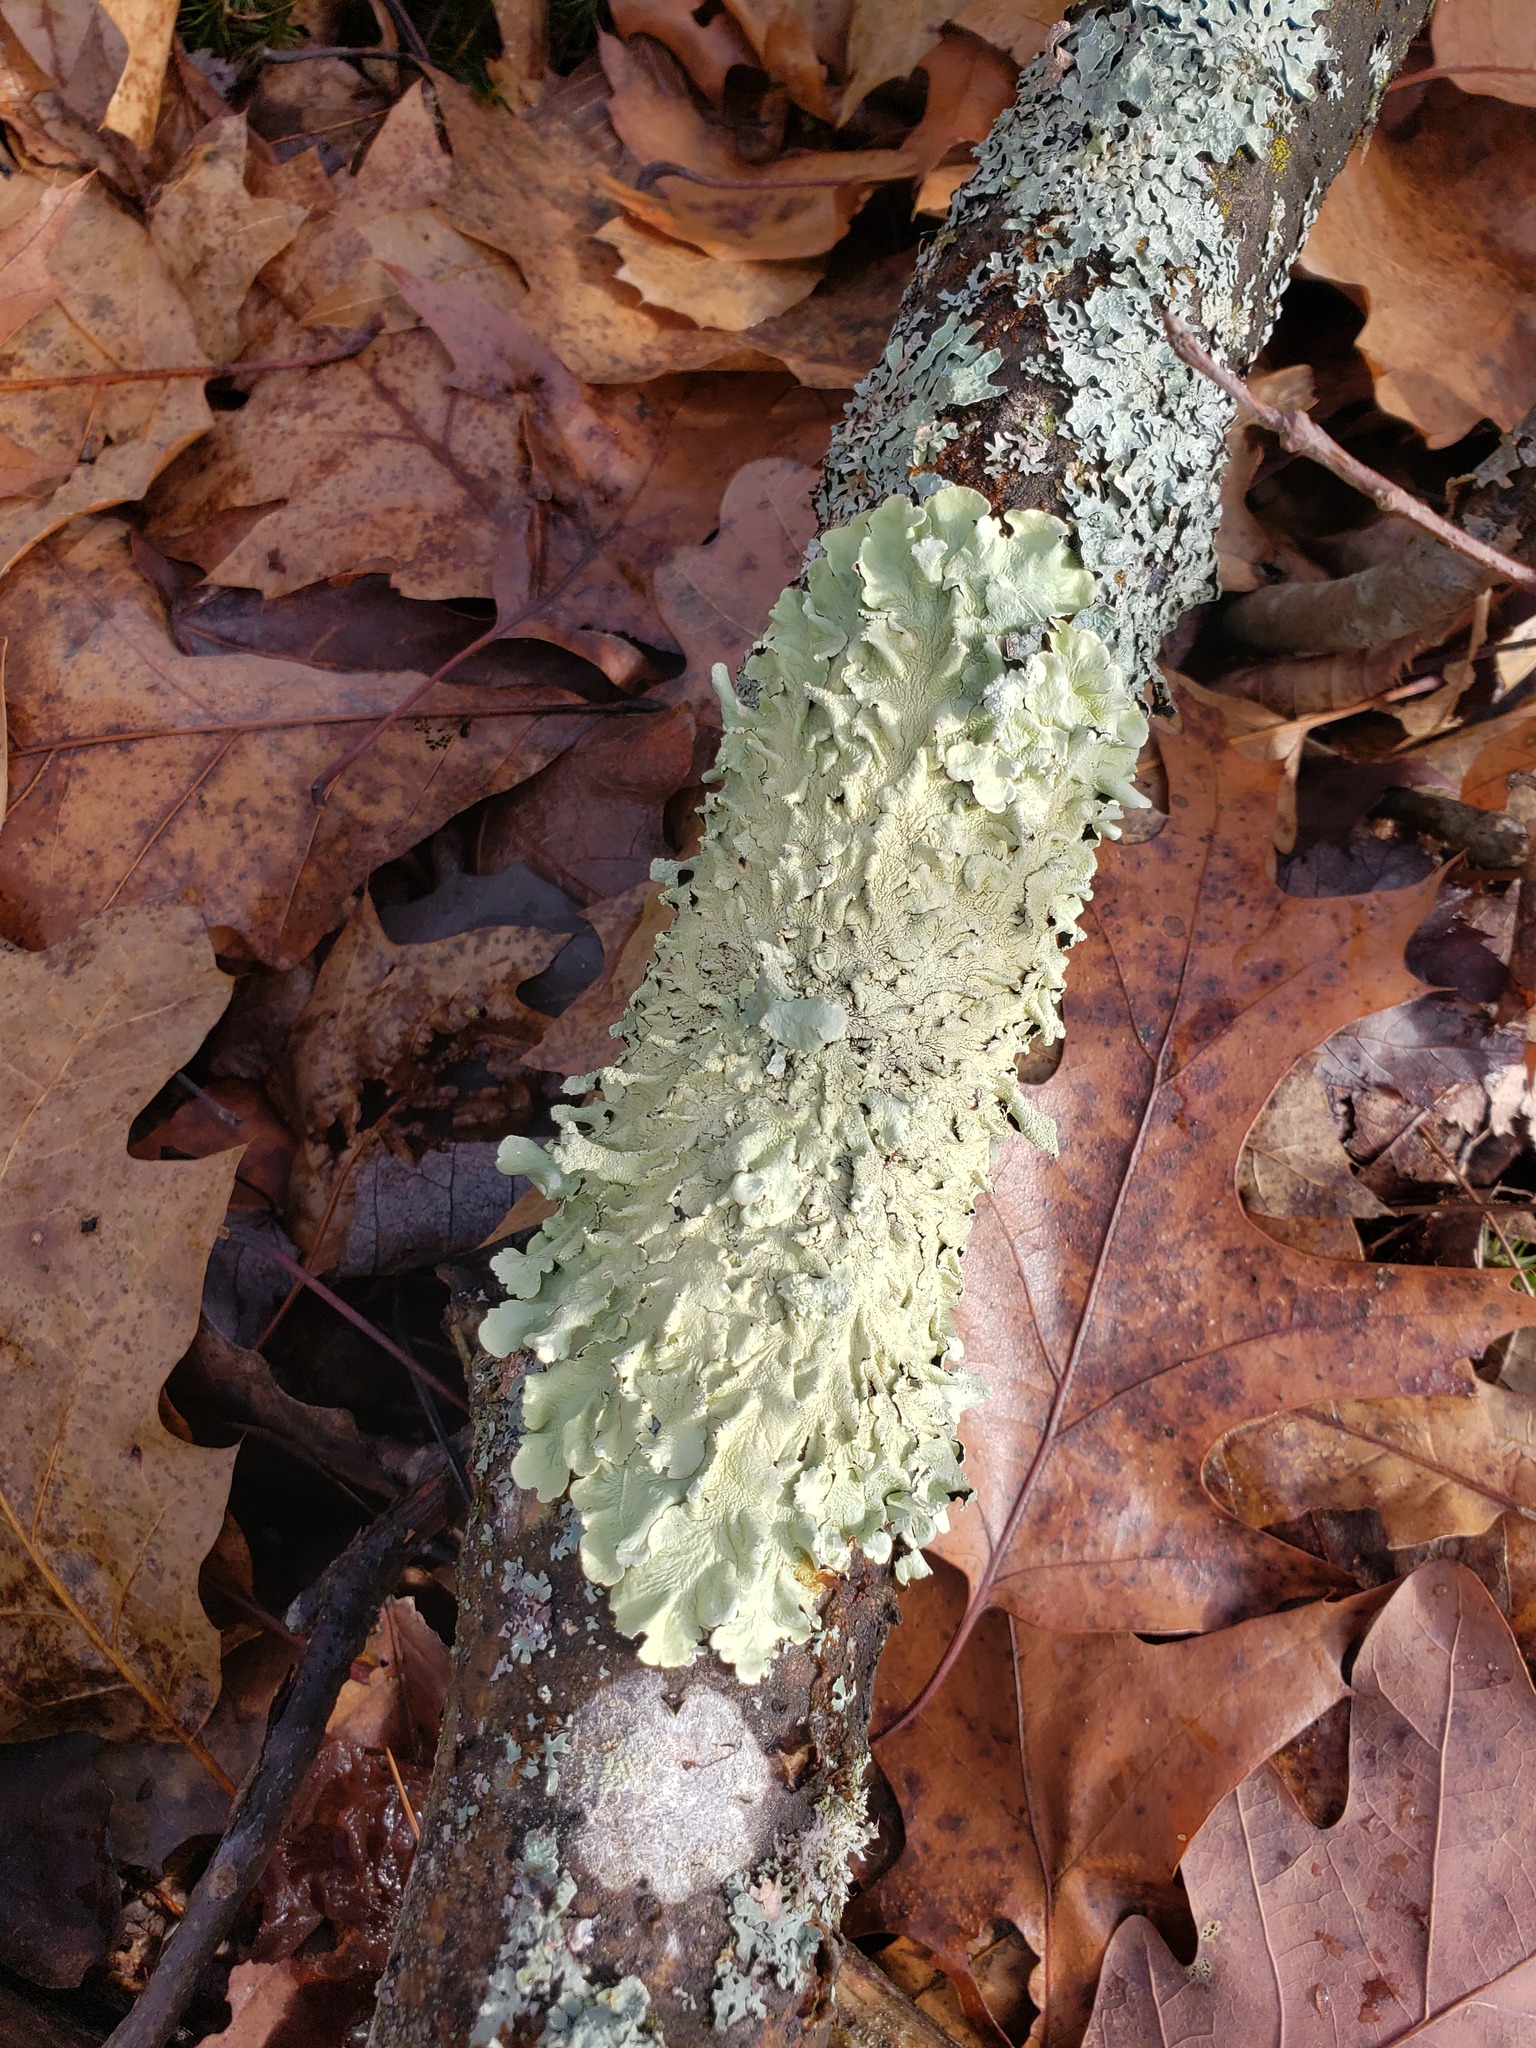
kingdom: Fungi
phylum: Ascomycota
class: Lecanoromycetes
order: Lecanorales
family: Parmeliaceae
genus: Flavoparmelia
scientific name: Flavoparmelia caperata
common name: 40-mile per hour lichen
